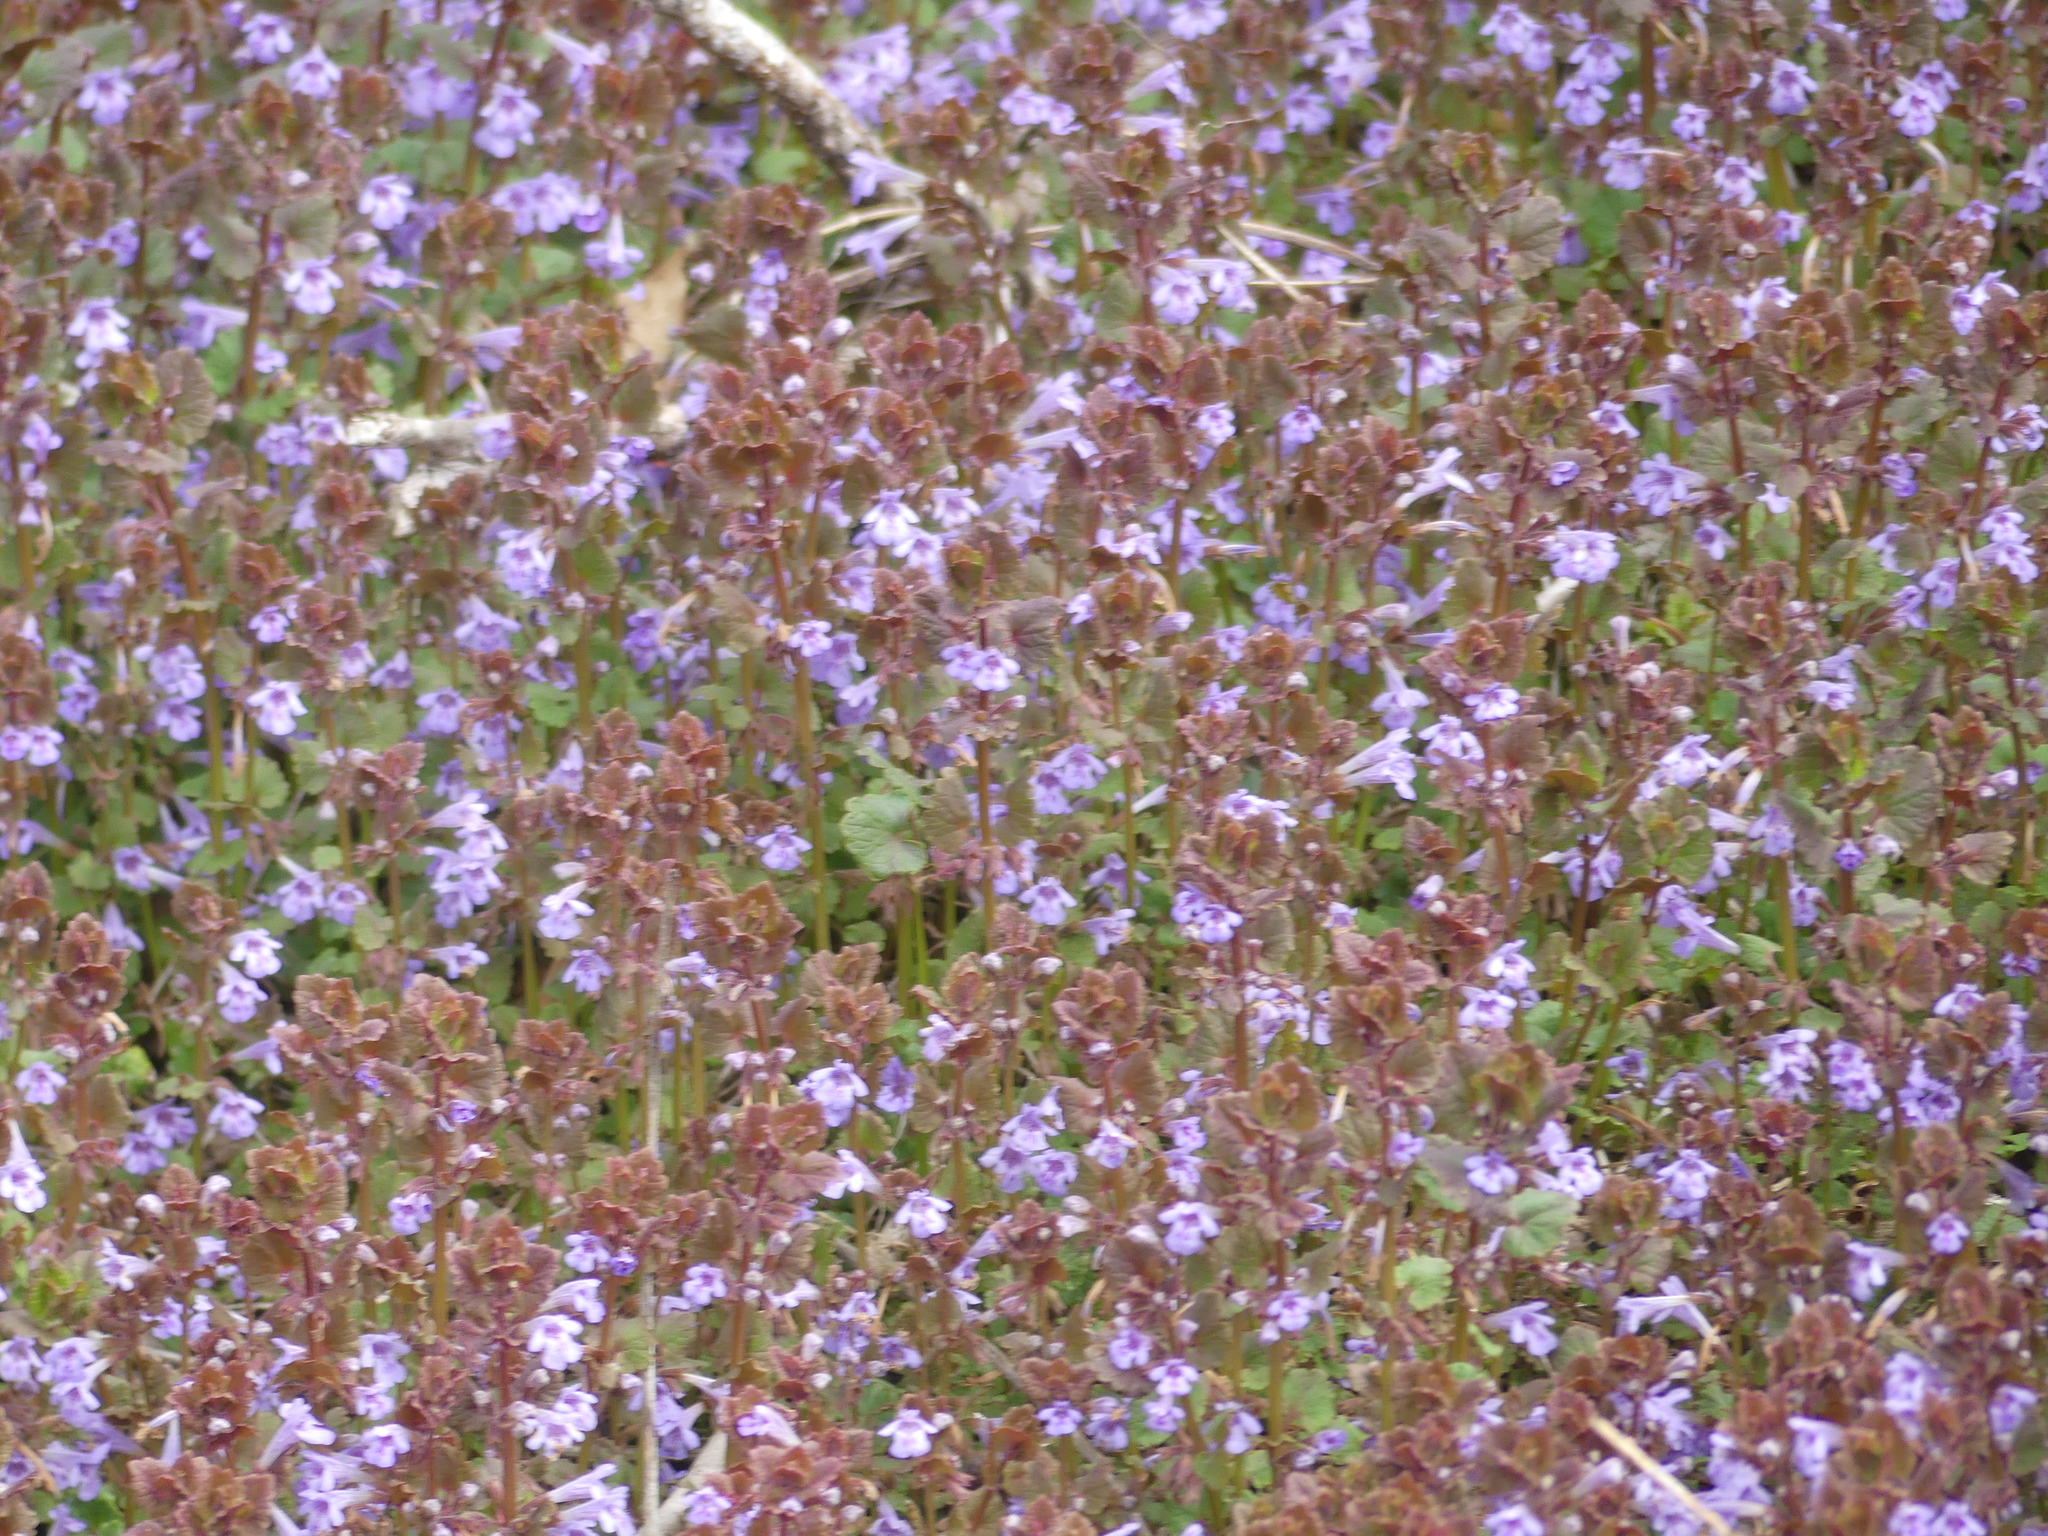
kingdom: Plantae
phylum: Tracheophyta
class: Magnoliopsida
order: Lamiales
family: Lamiaceae
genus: Glechoma
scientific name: Glechoma hederacea
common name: Ground ivy
